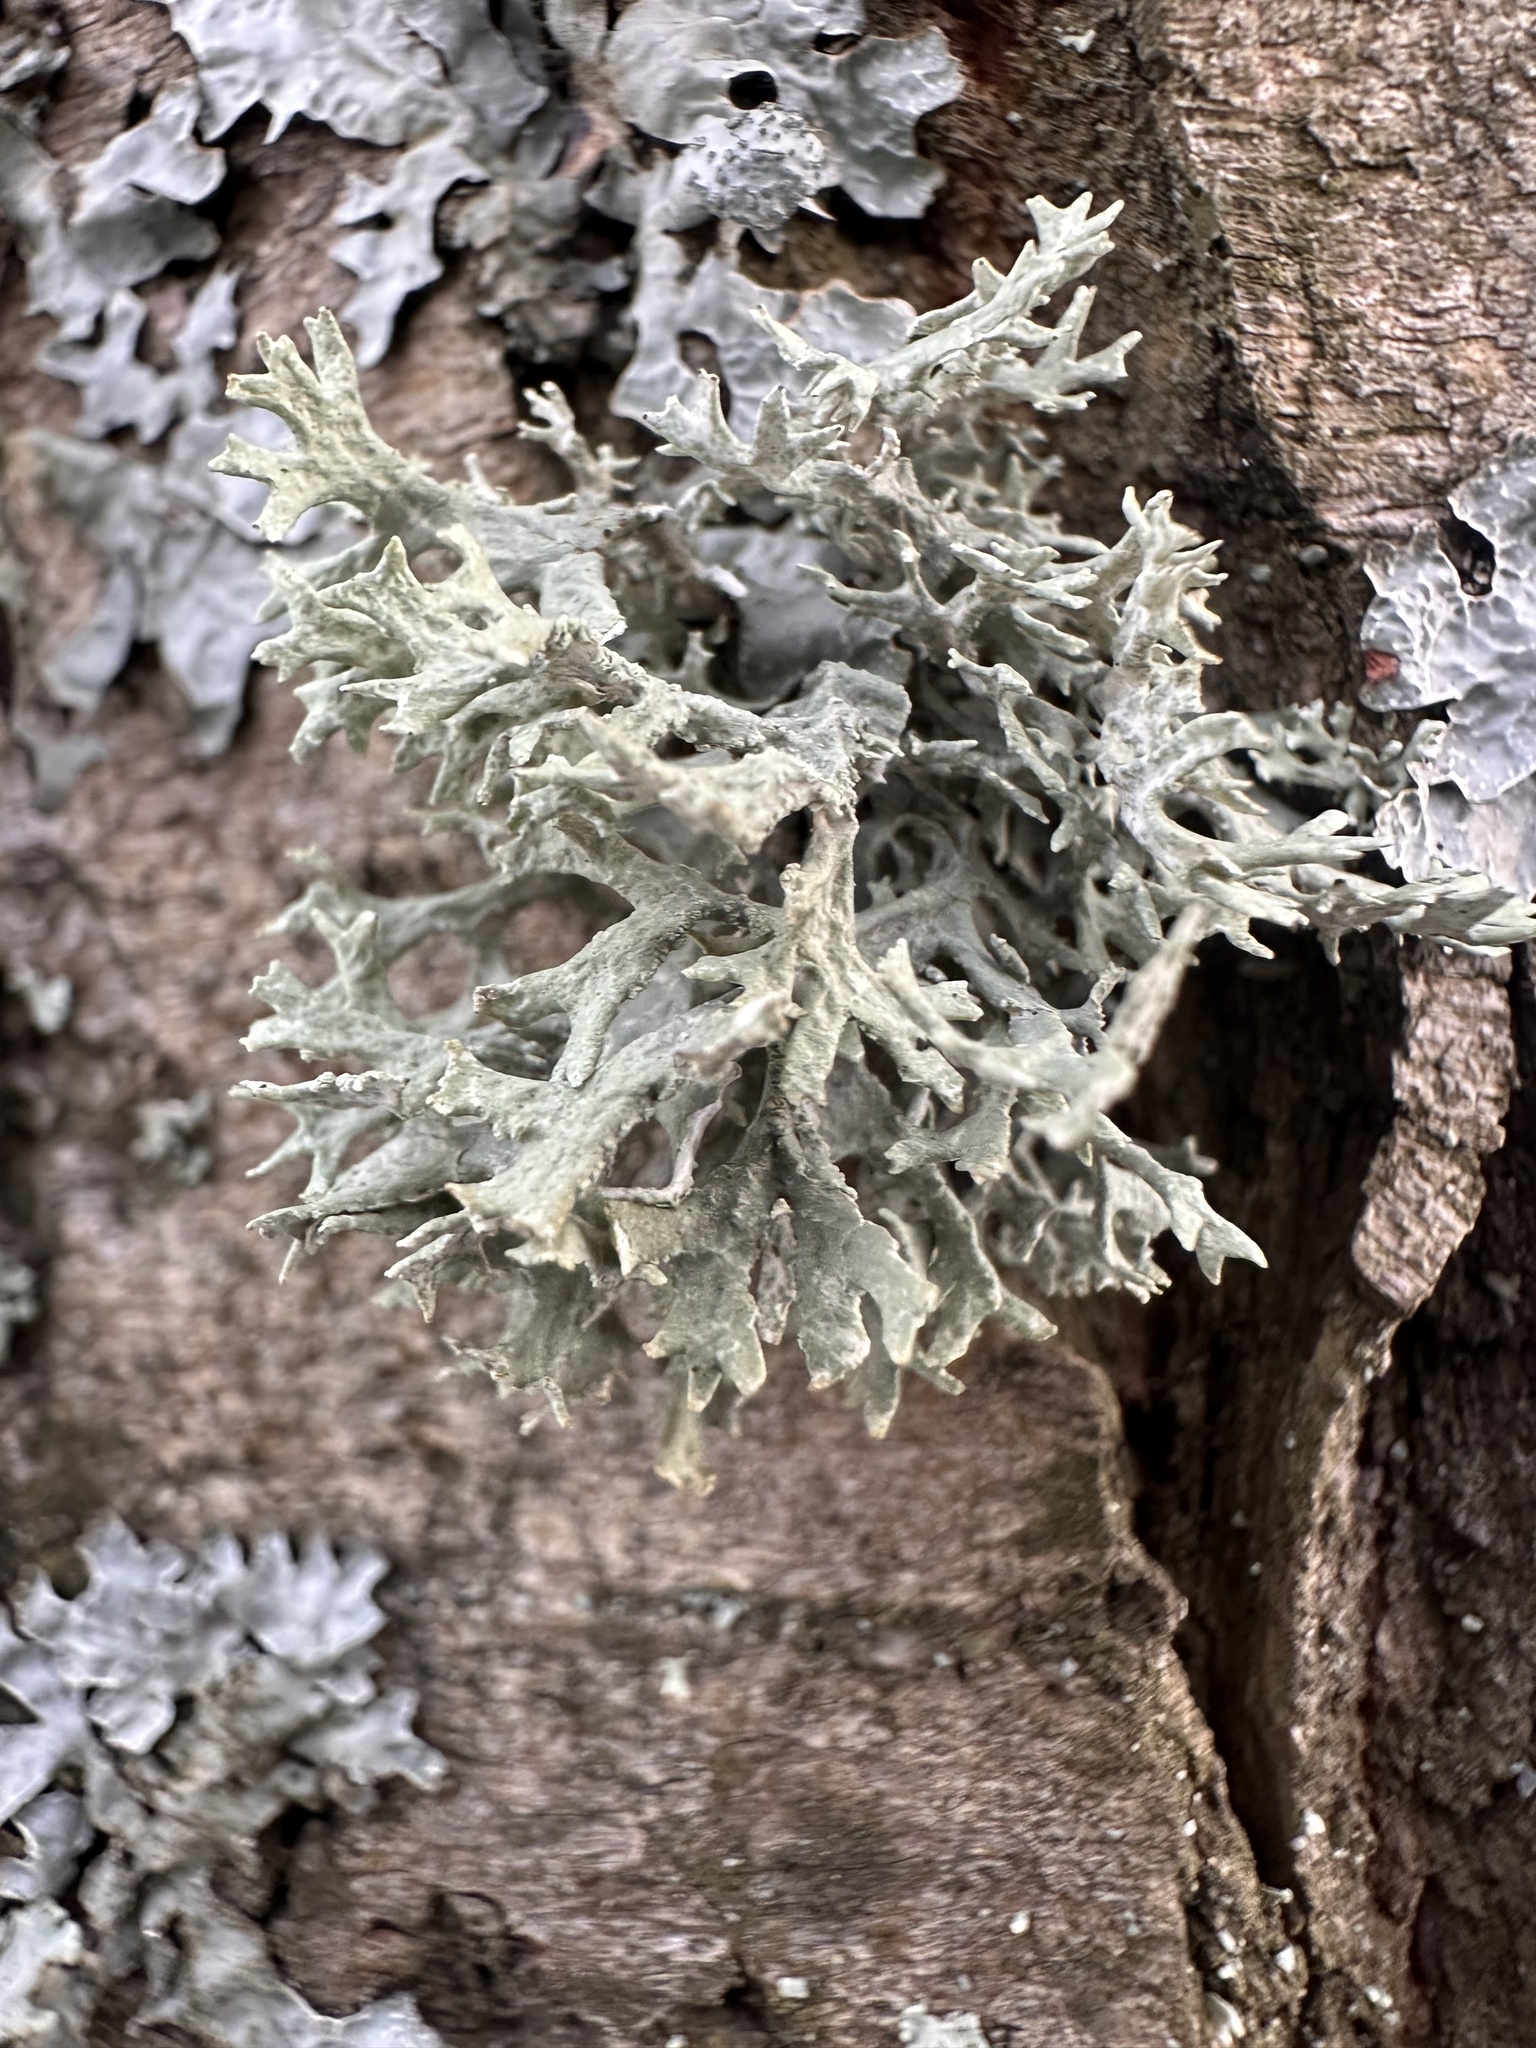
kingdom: Fungi
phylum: Ascomycota
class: Lecanoromycetes
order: Lecanorales
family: Parmeliaceae
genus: Evernia
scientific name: Evernia prunastri
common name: Oak moss
